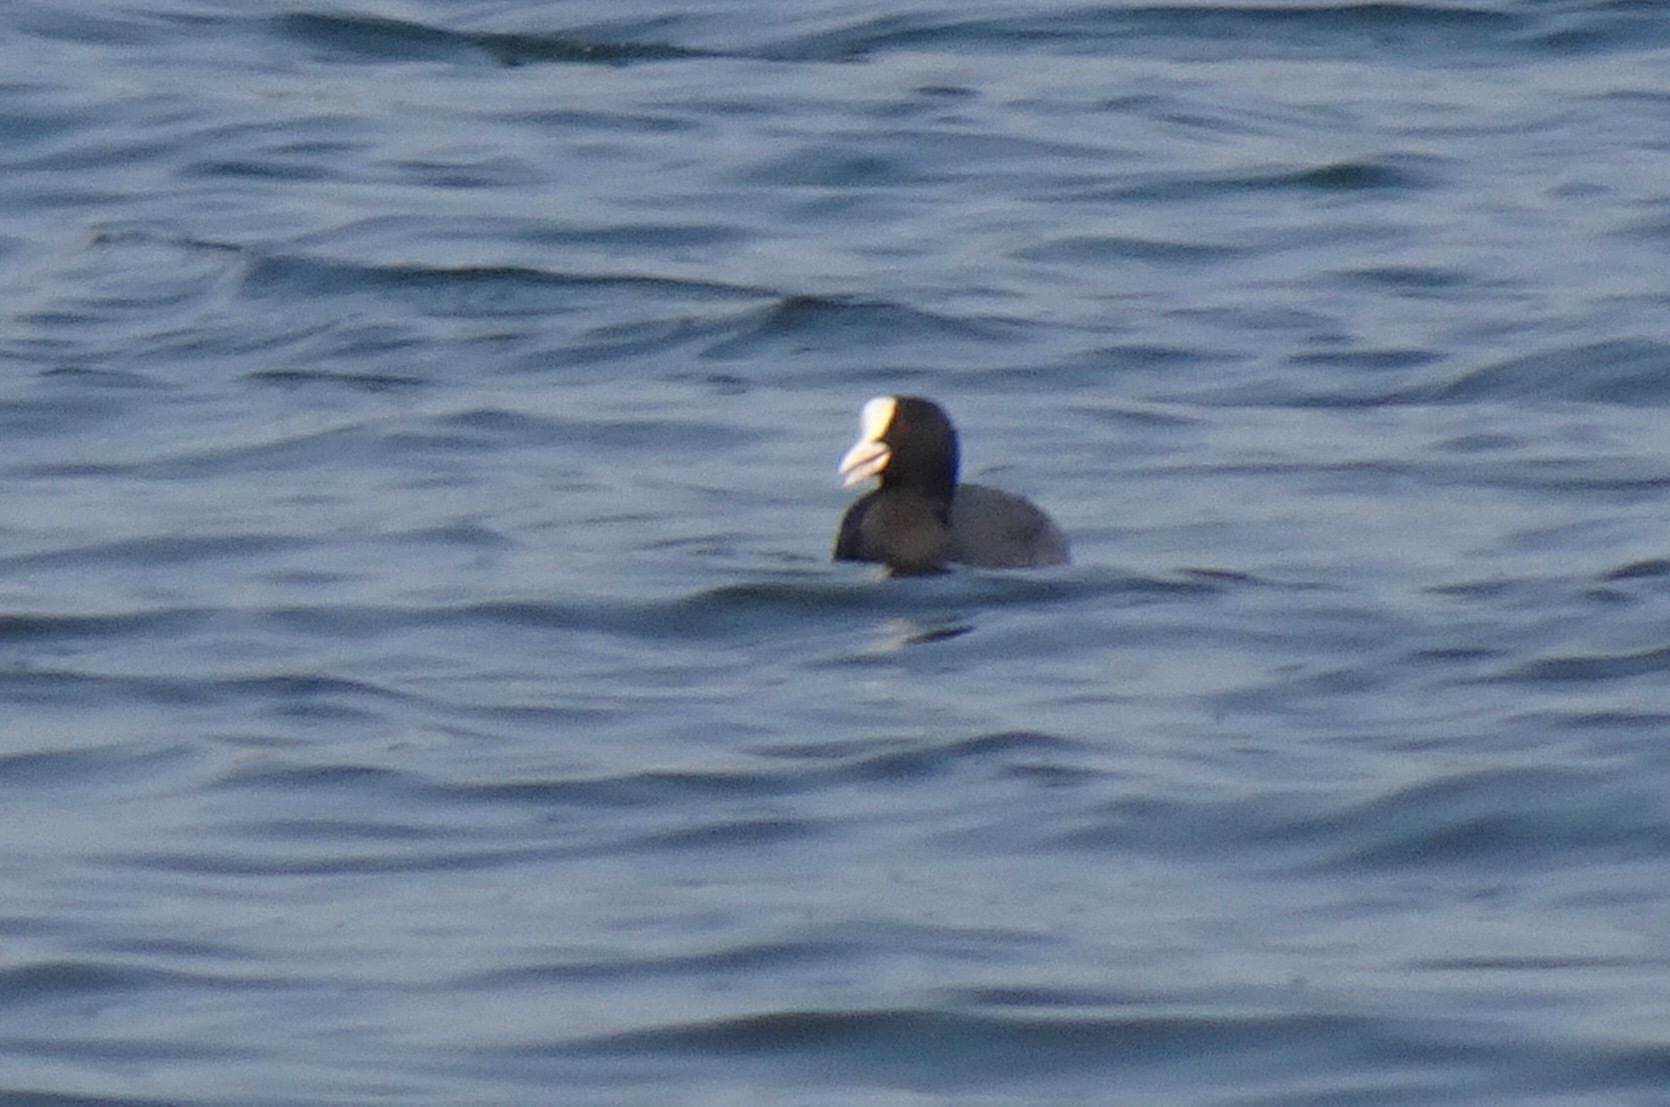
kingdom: Animalia
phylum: Chordata
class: Aves
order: Gruiformes
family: Rallidae
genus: Fulica
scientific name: Fulica atra
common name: Eurasian coot
